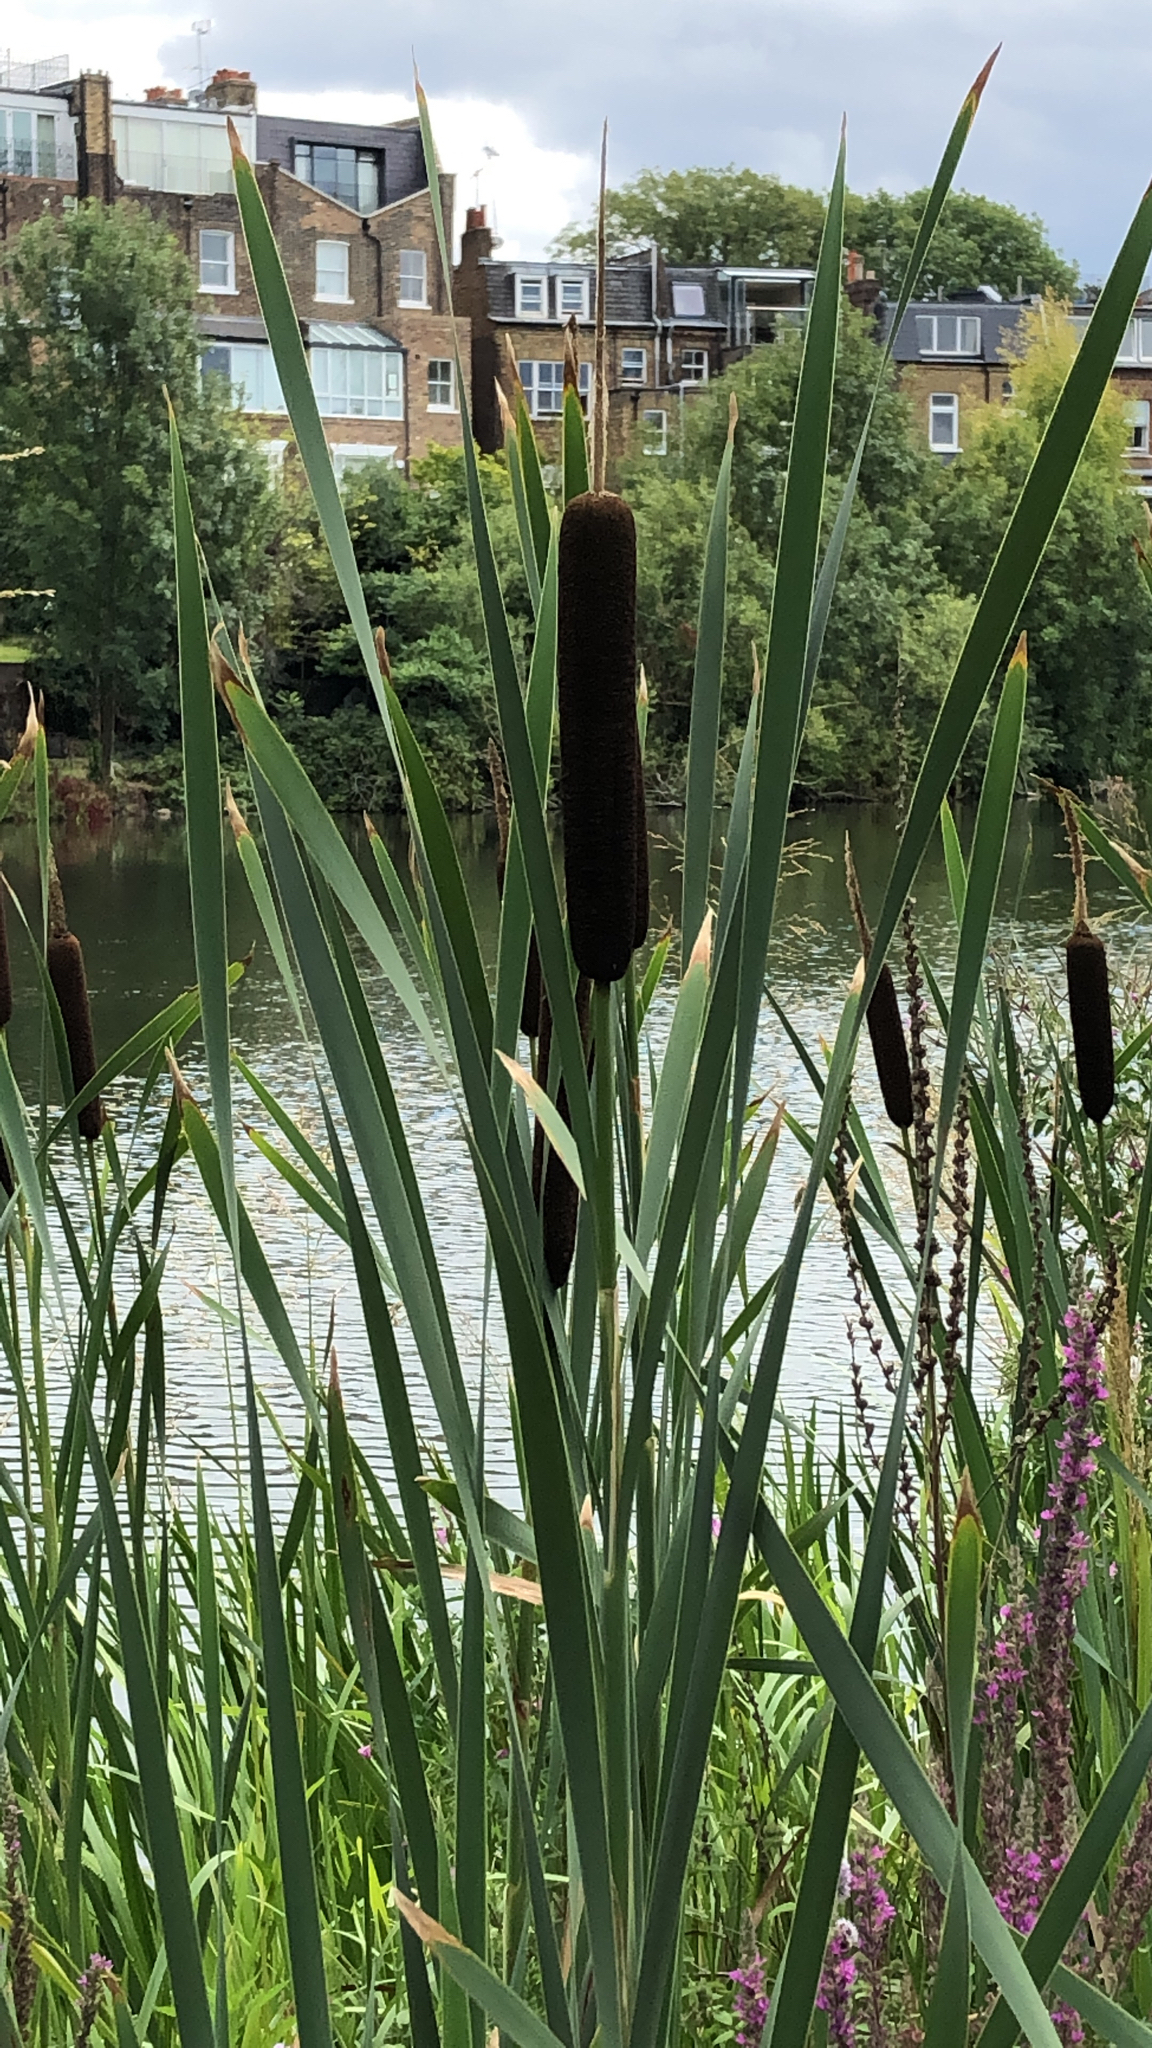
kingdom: Plantae
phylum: Tracheophyta
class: Liliopsida
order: Poales
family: Typhaceae
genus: Typha
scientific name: Typha latifolia
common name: Broadleaf cattail
